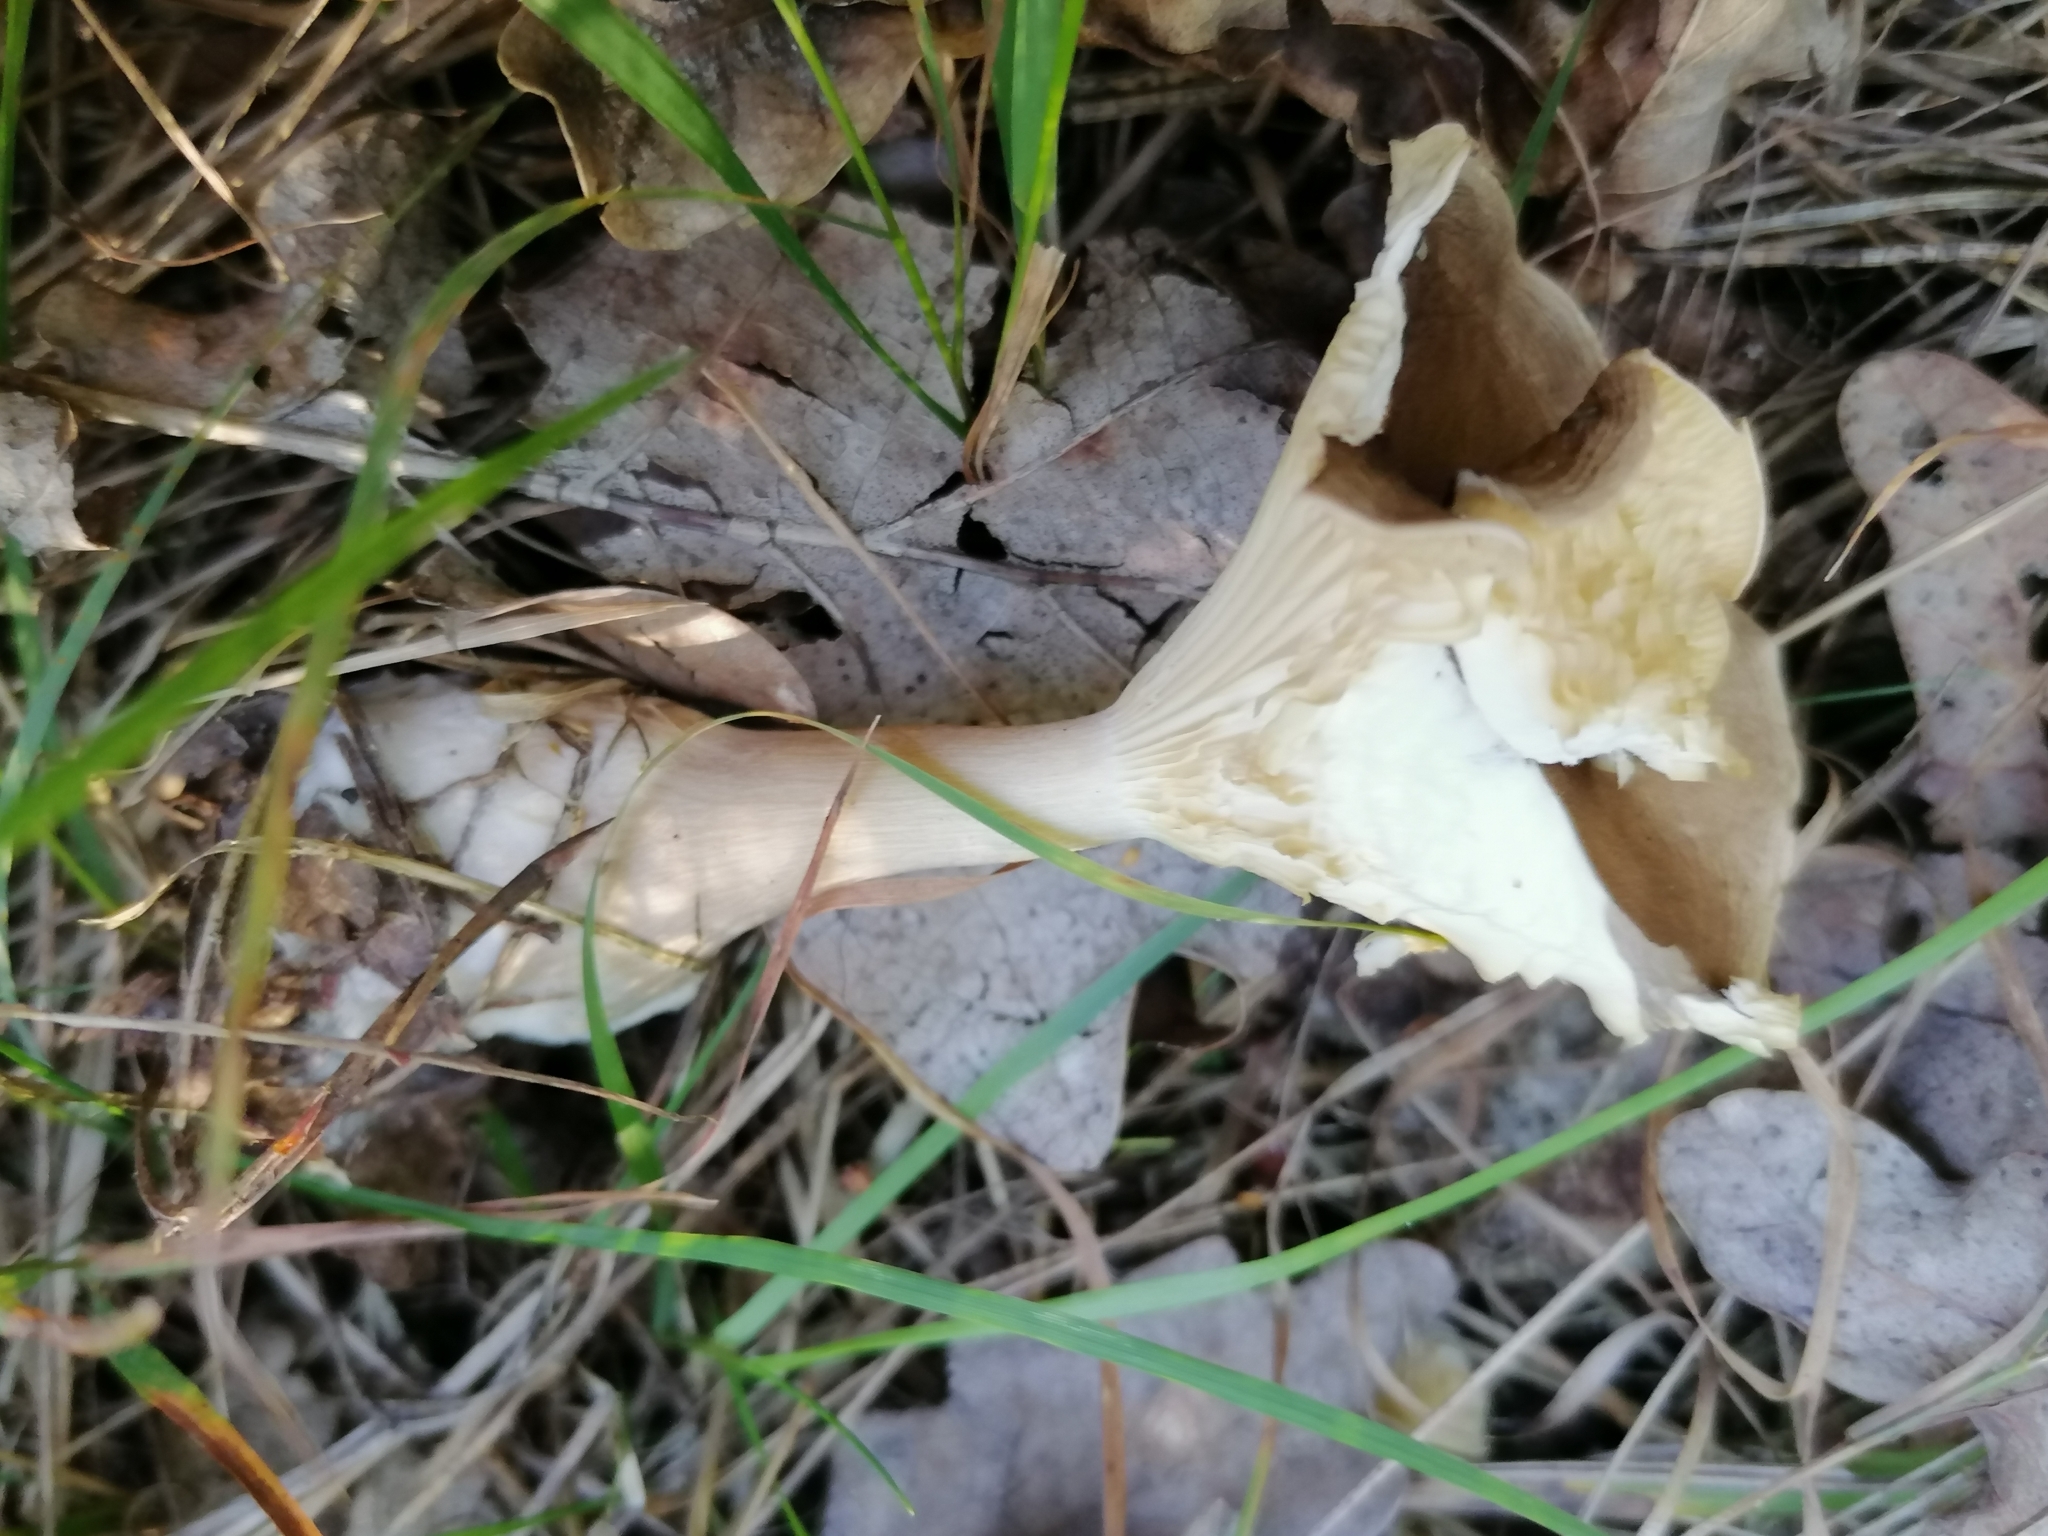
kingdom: Fungi
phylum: Basidiomycota
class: Agaricomycetes
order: Agaricales
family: Hygrophoraceae
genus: Ampulloclitocybe
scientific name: Ampulloclitocybe clavipes
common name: Club foot
